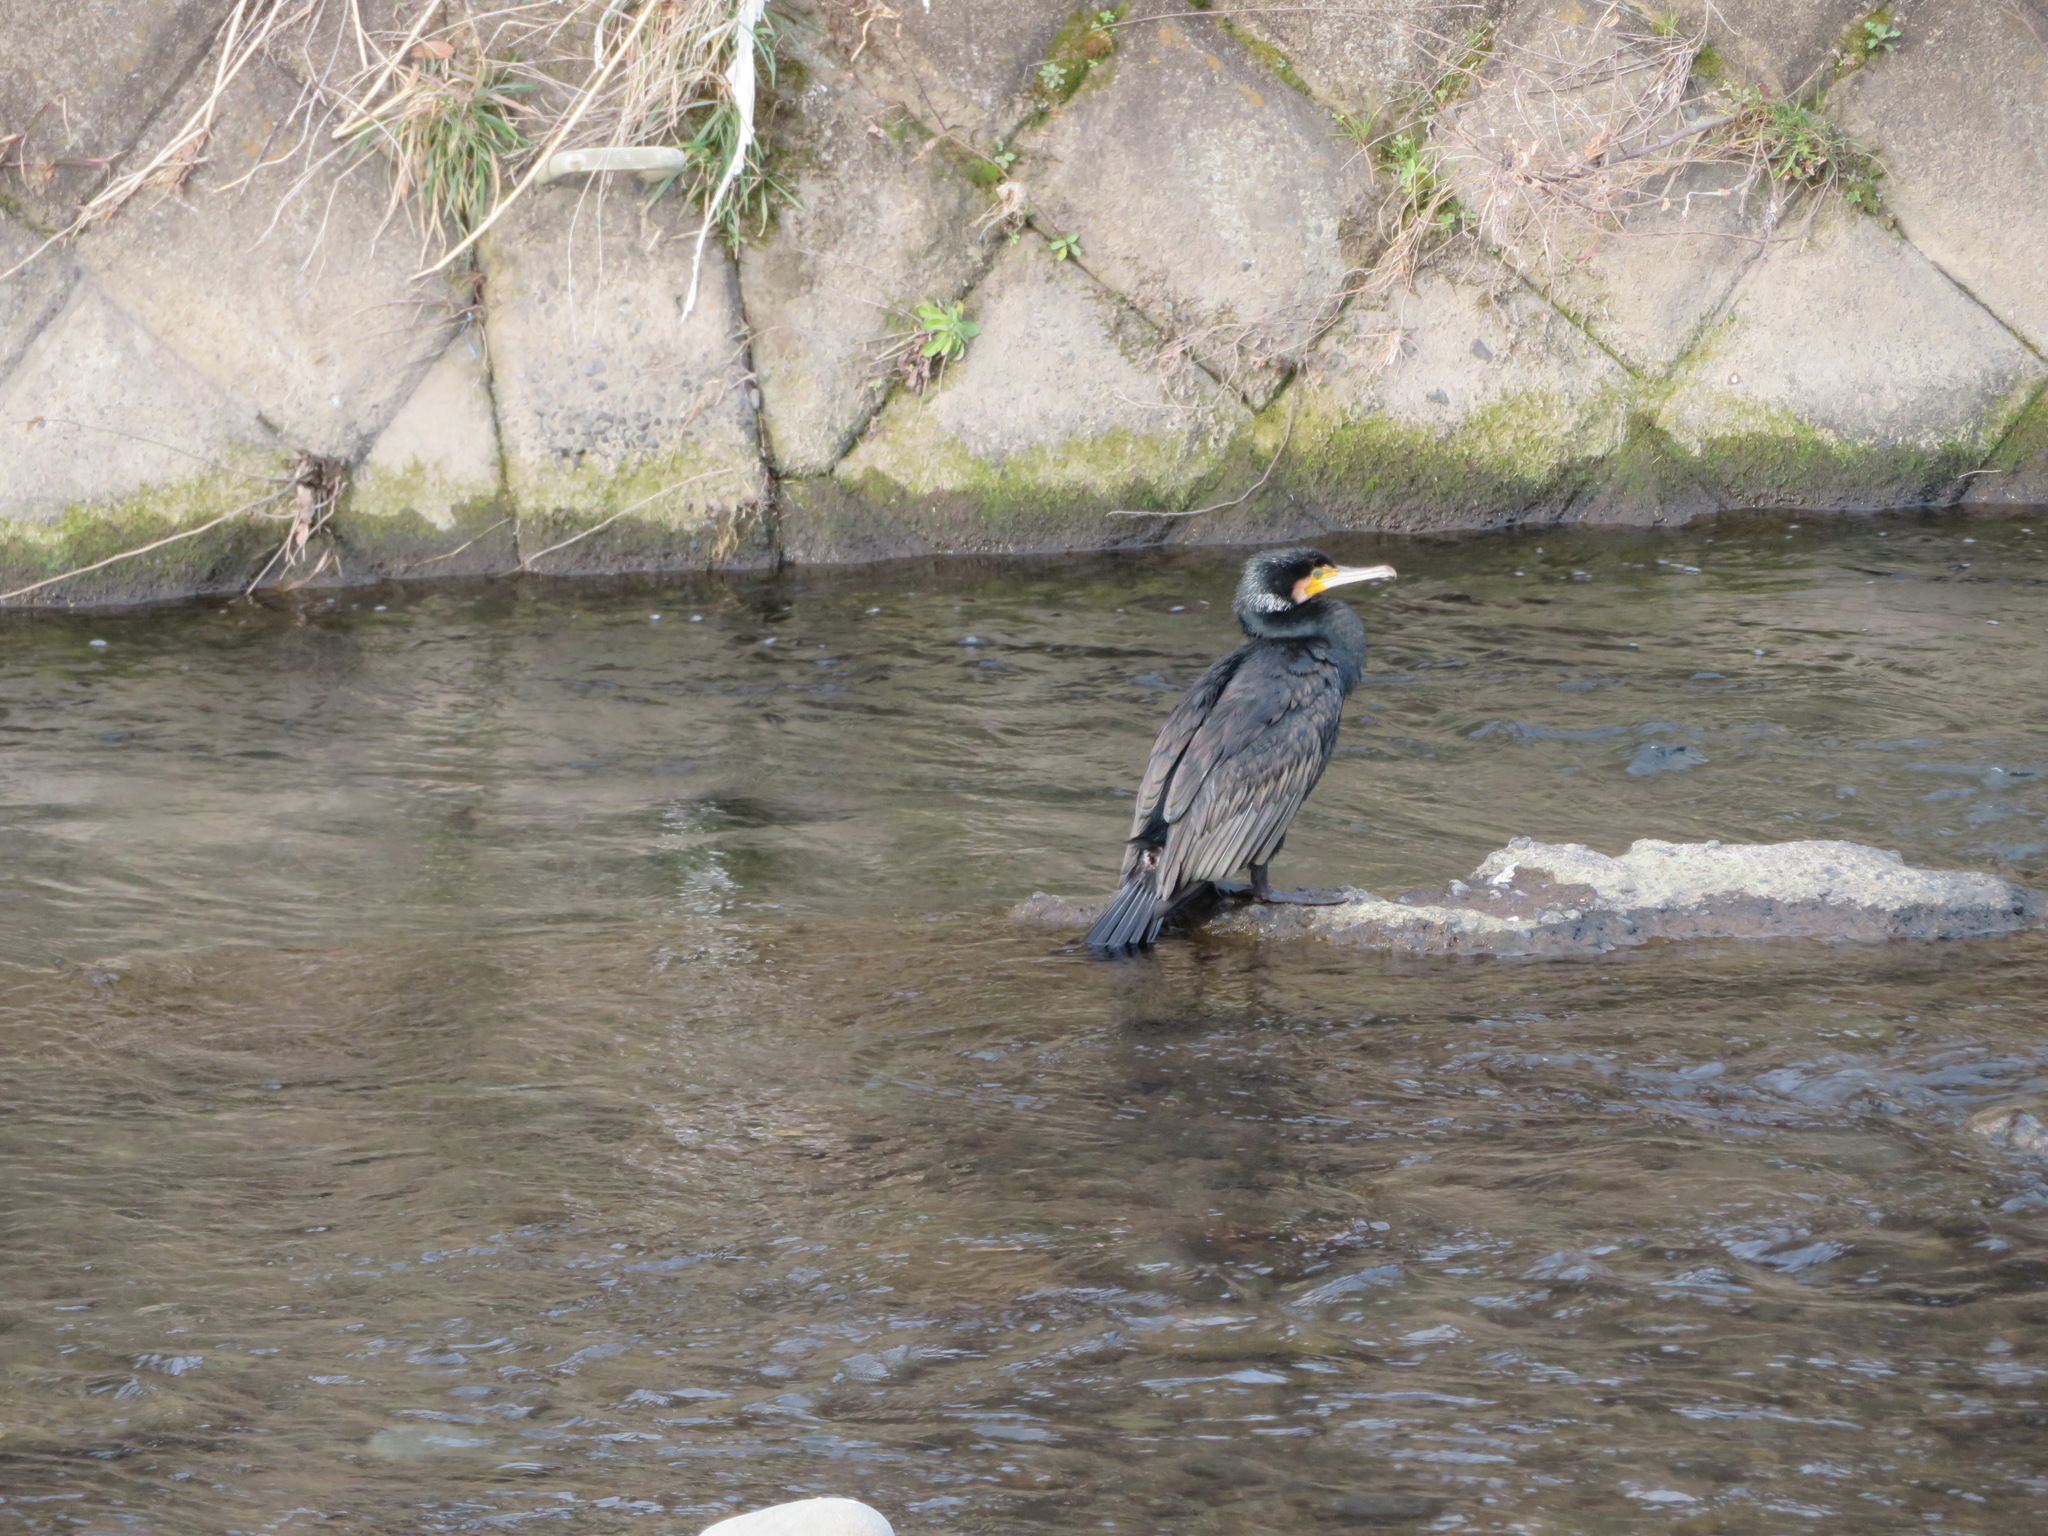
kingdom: Animalia
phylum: Chordata
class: Aves
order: Suliformes
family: Phalacrocoracidae
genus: Phalacrocorax
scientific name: Phalacrocorax carbo
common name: Great cormorant
